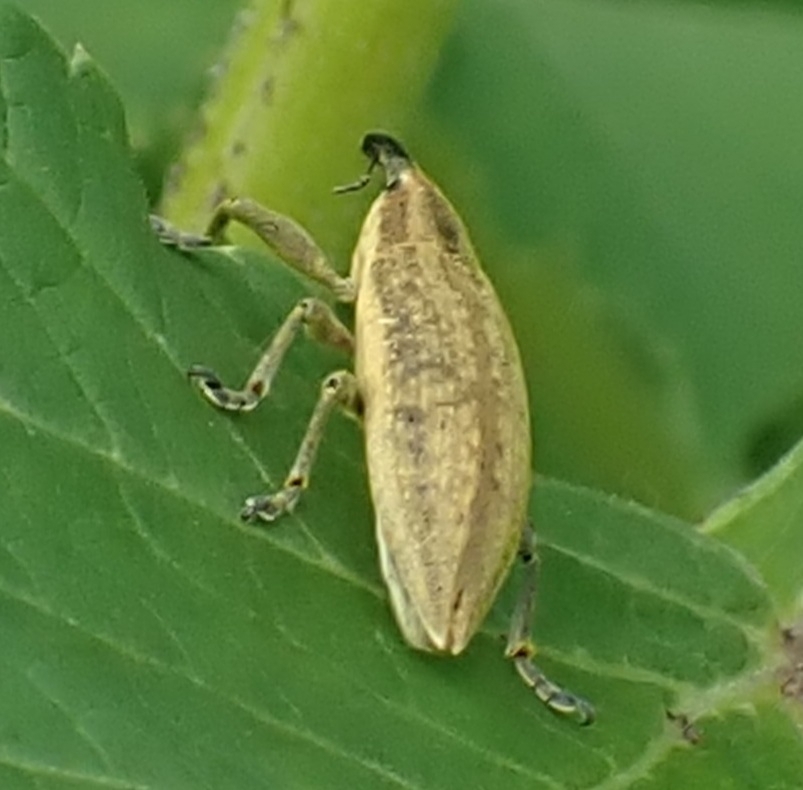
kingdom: Animalia
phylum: Arthropoda
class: Insecta
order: Coleoptera
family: Curculionidae
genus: Lixus
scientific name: Lixus iridis
